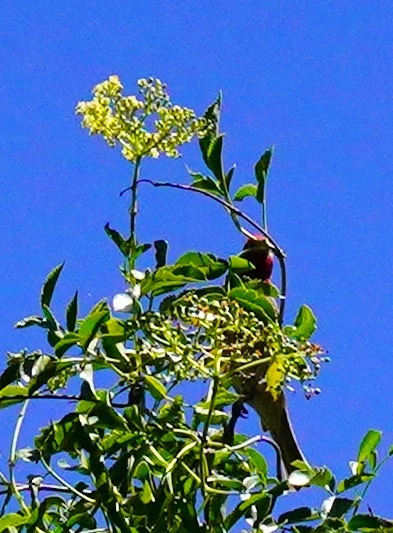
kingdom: Animalia
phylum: Chordata
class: Aves
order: Passeriformes
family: Fringillidae
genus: Haemorhous
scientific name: Haemorhous mexicanus
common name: House finch
